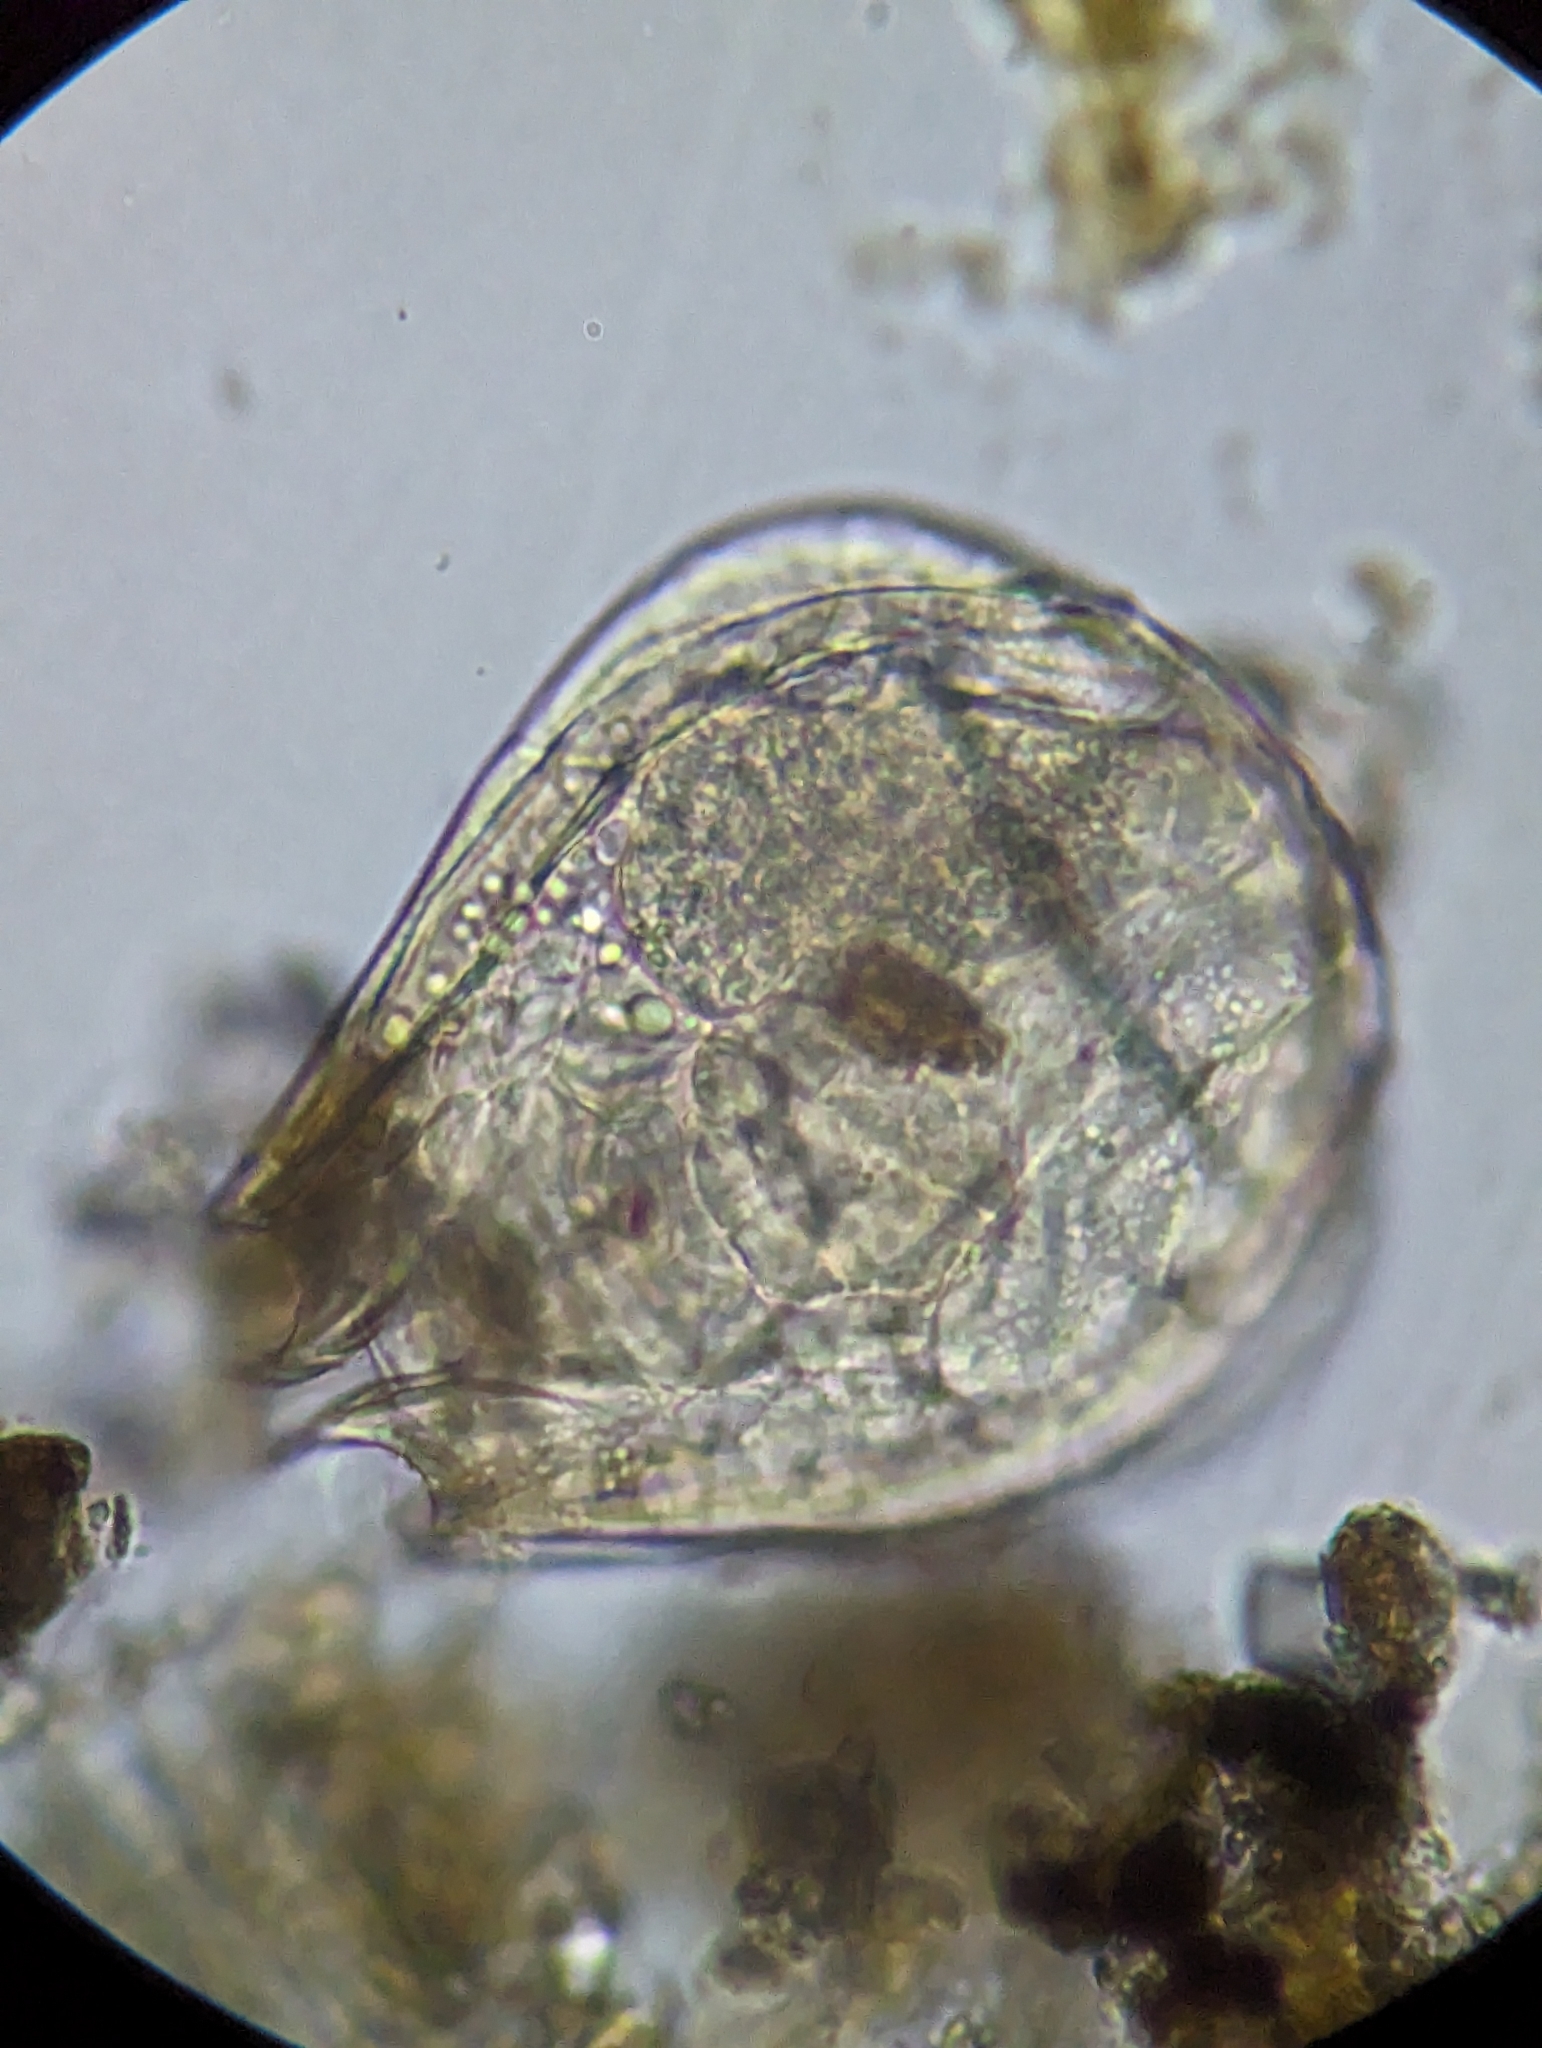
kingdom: Animalia
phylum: Rotifera
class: Eurotatoria
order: Ploima
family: Lecanidae
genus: Lecane
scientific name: Lecane quadridentata
